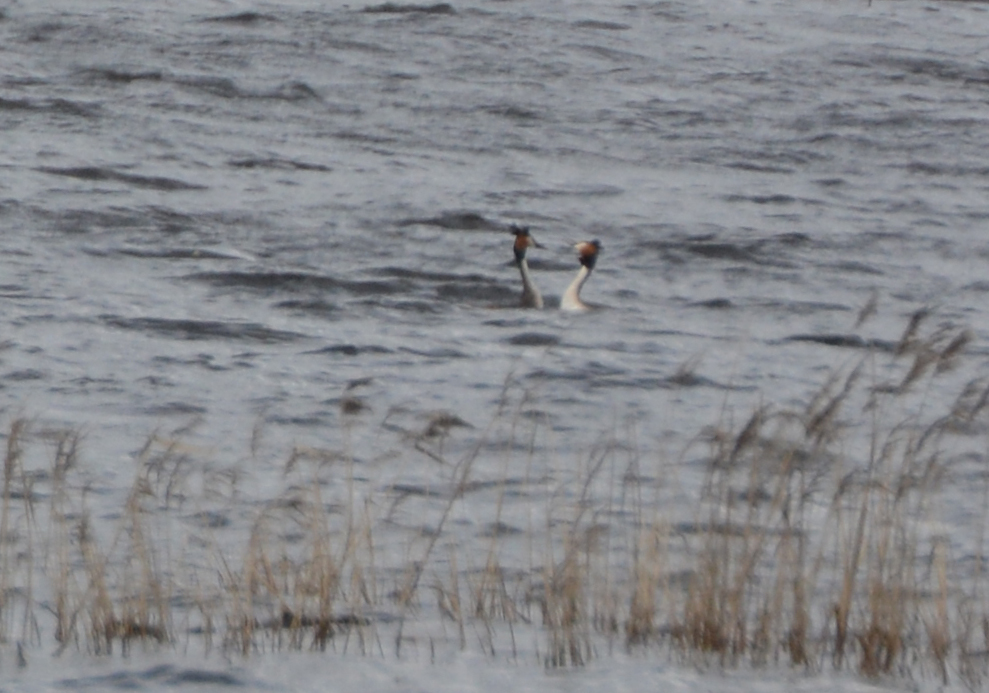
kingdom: Animalia
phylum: Chordata
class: Aves
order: Podicipediformes
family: Podicipedidae
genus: Podiceps
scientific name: Podiceps cristatus
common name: Great crested grebe
